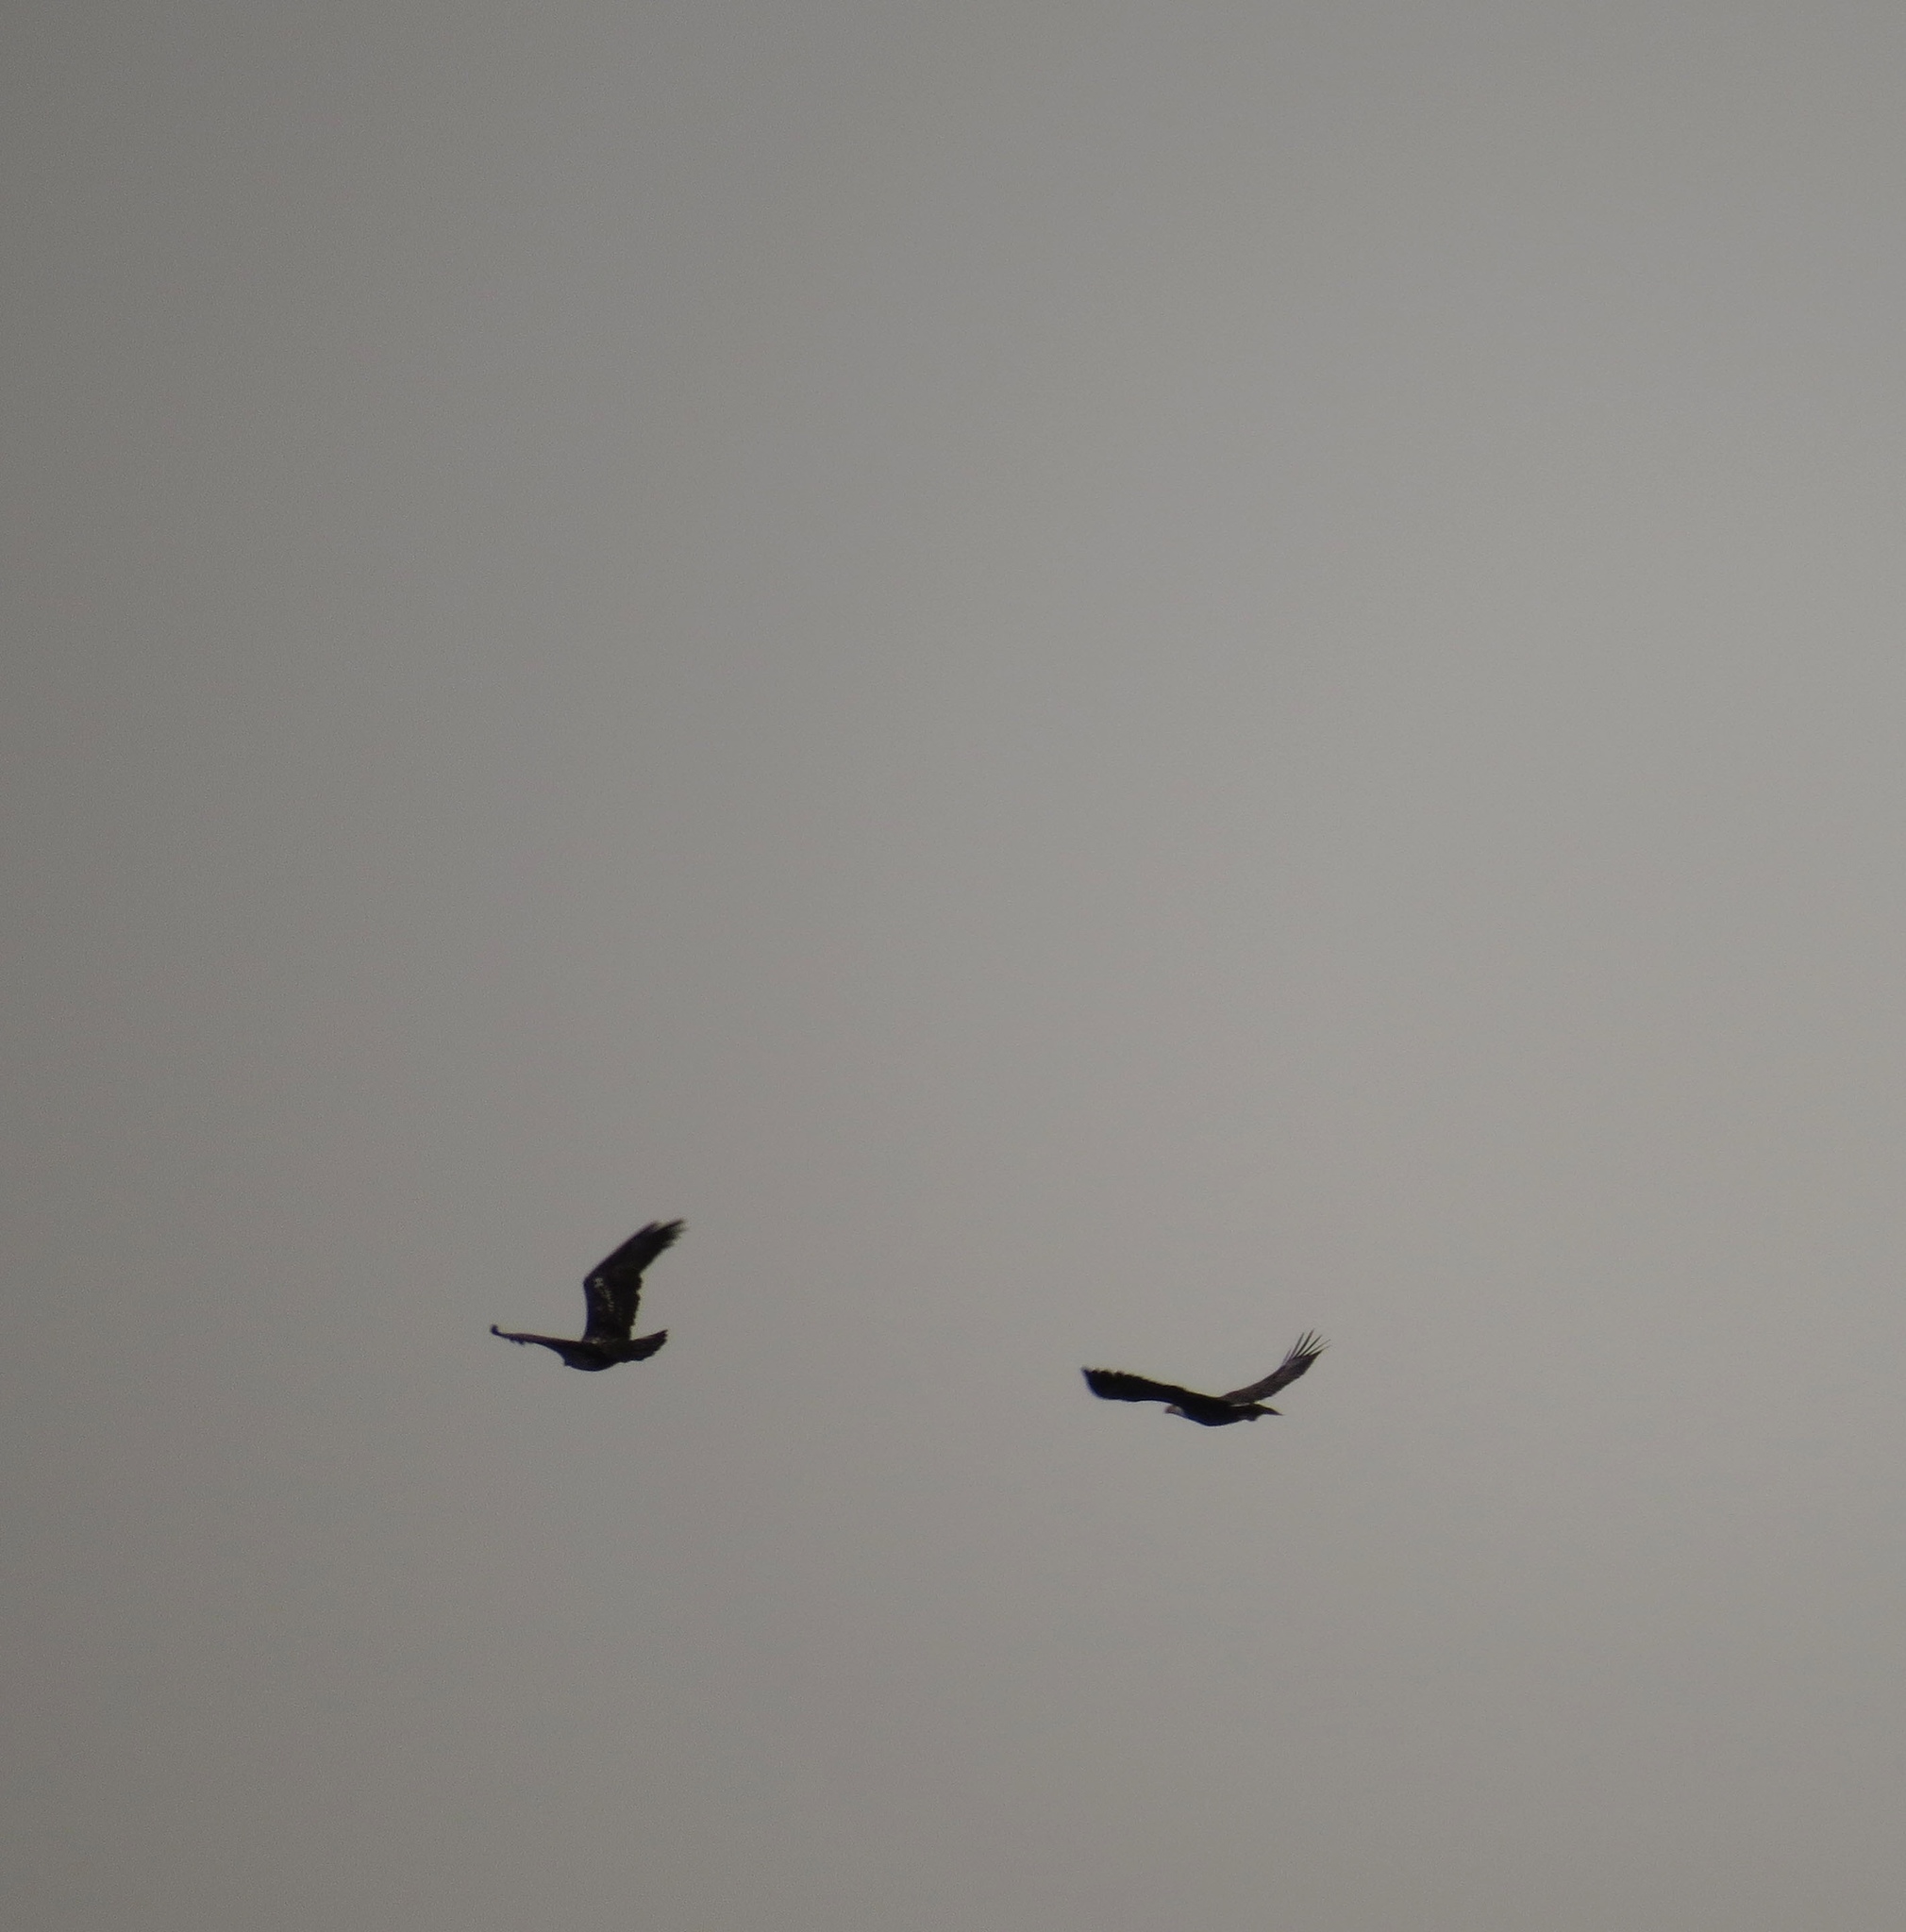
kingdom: Animalia
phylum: Chordata
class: Aves
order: Accipitriformes
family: Accipitridae
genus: Haliaeetus
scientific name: Haliaeetus leucocephalus
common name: Bald eagle
